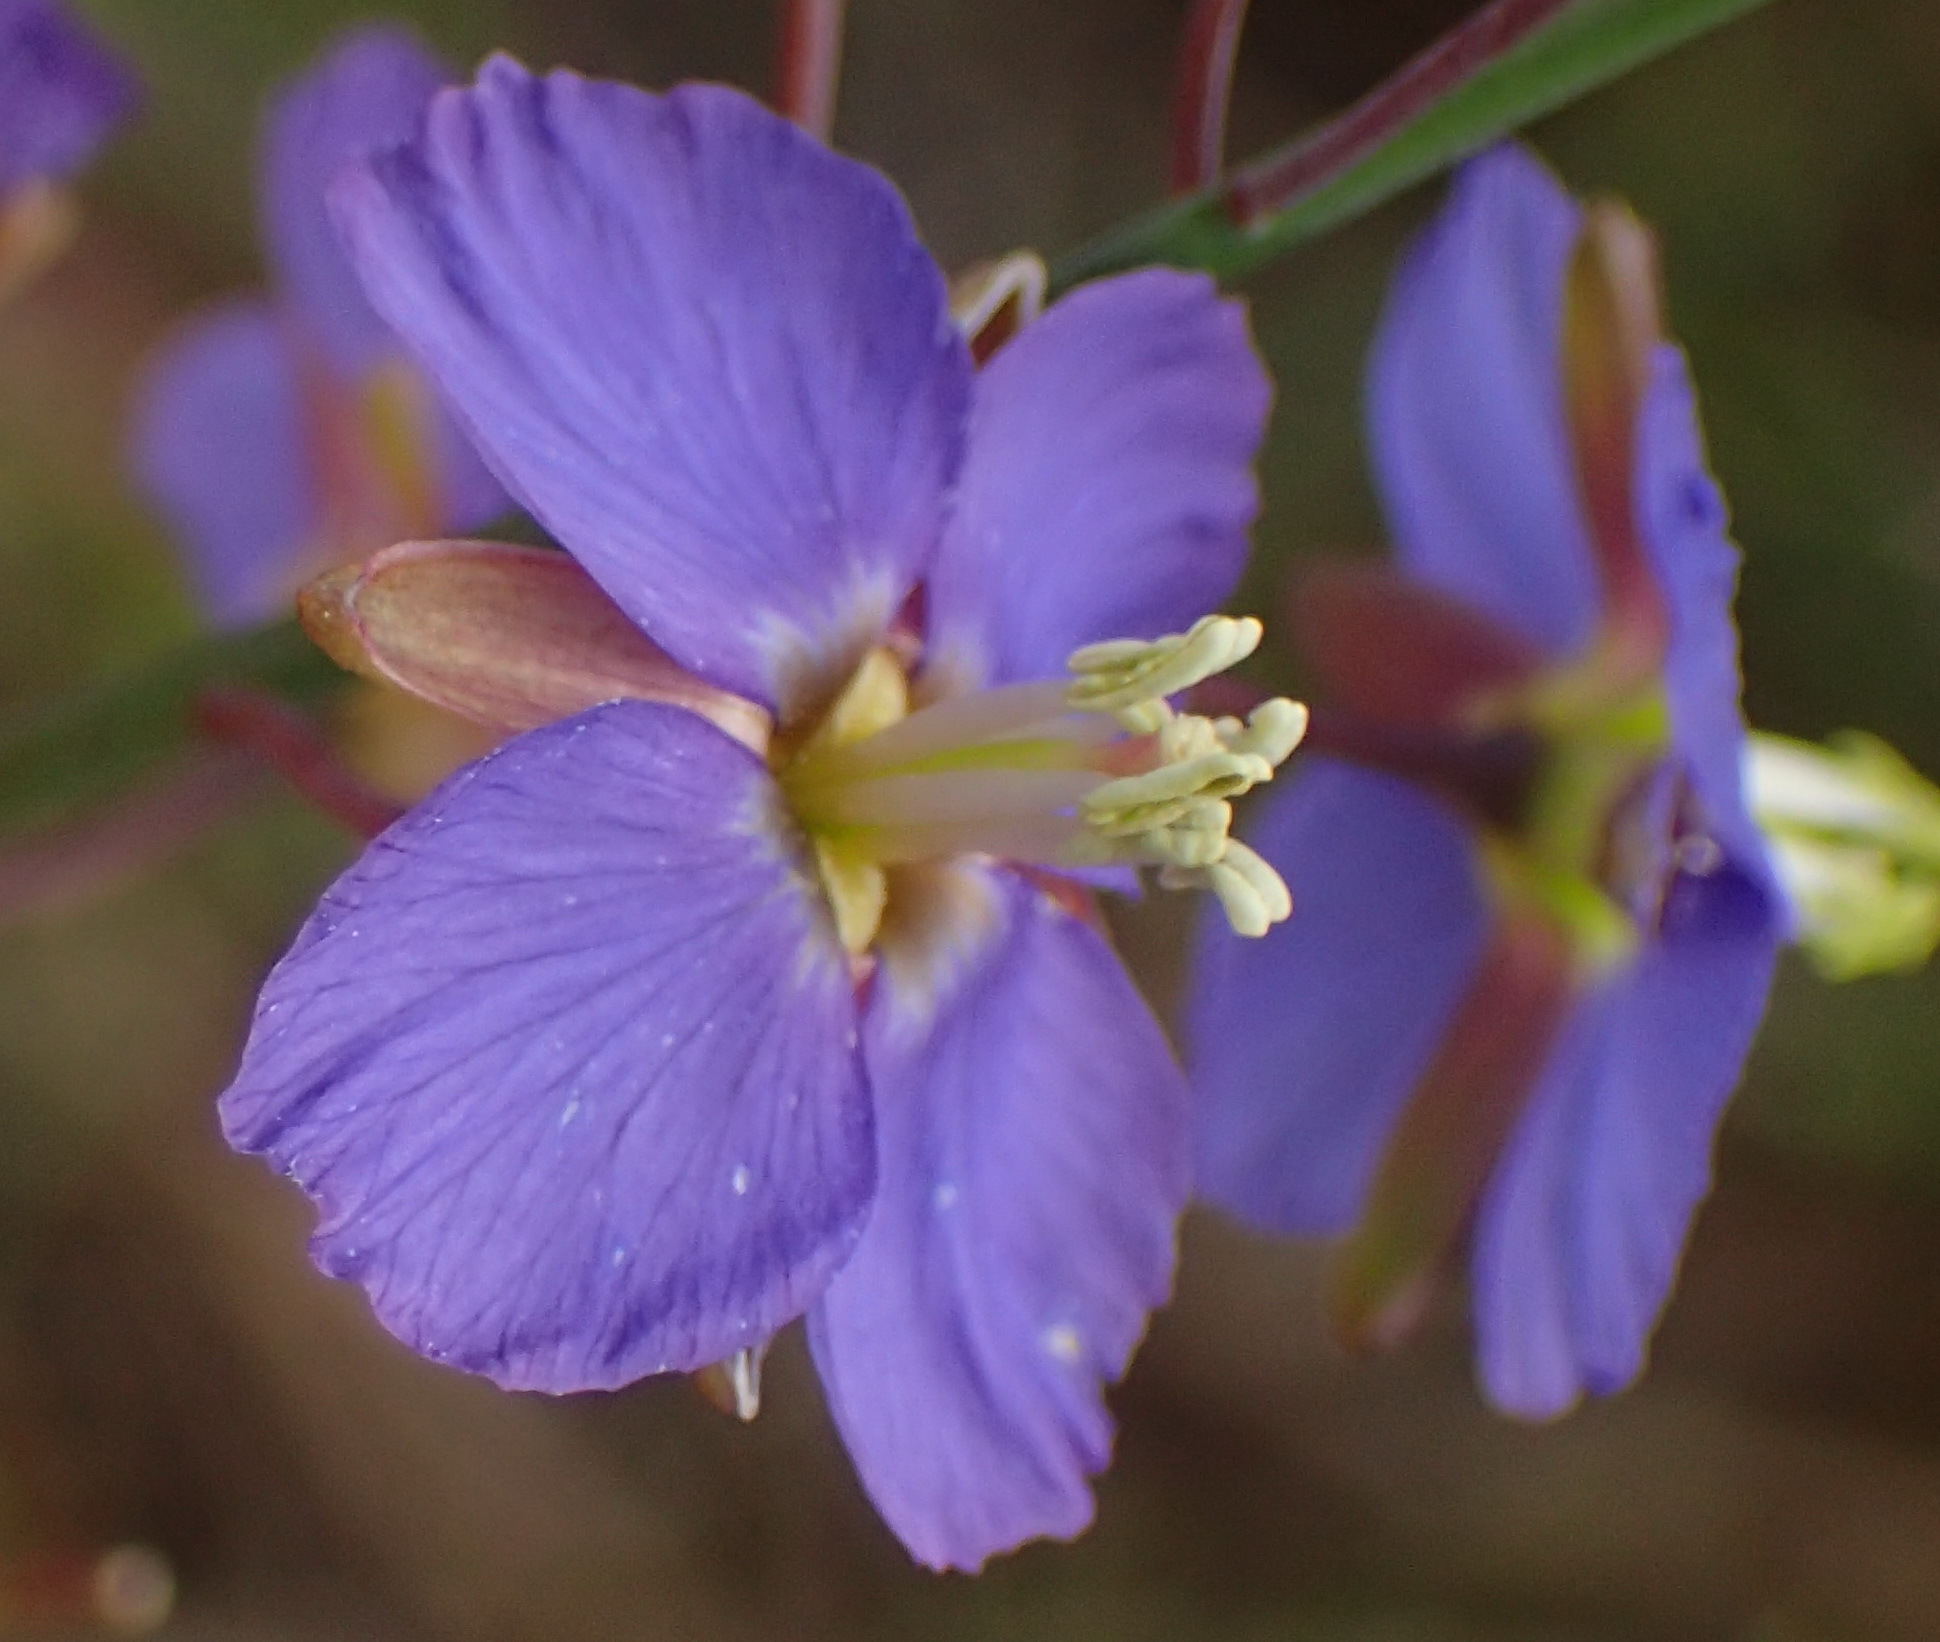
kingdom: Plantae
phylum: Tracheophyta
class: Magnoliopsida
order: Brassicales
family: Brassicaceae
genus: Heliophila
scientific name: Heliophila linearis
